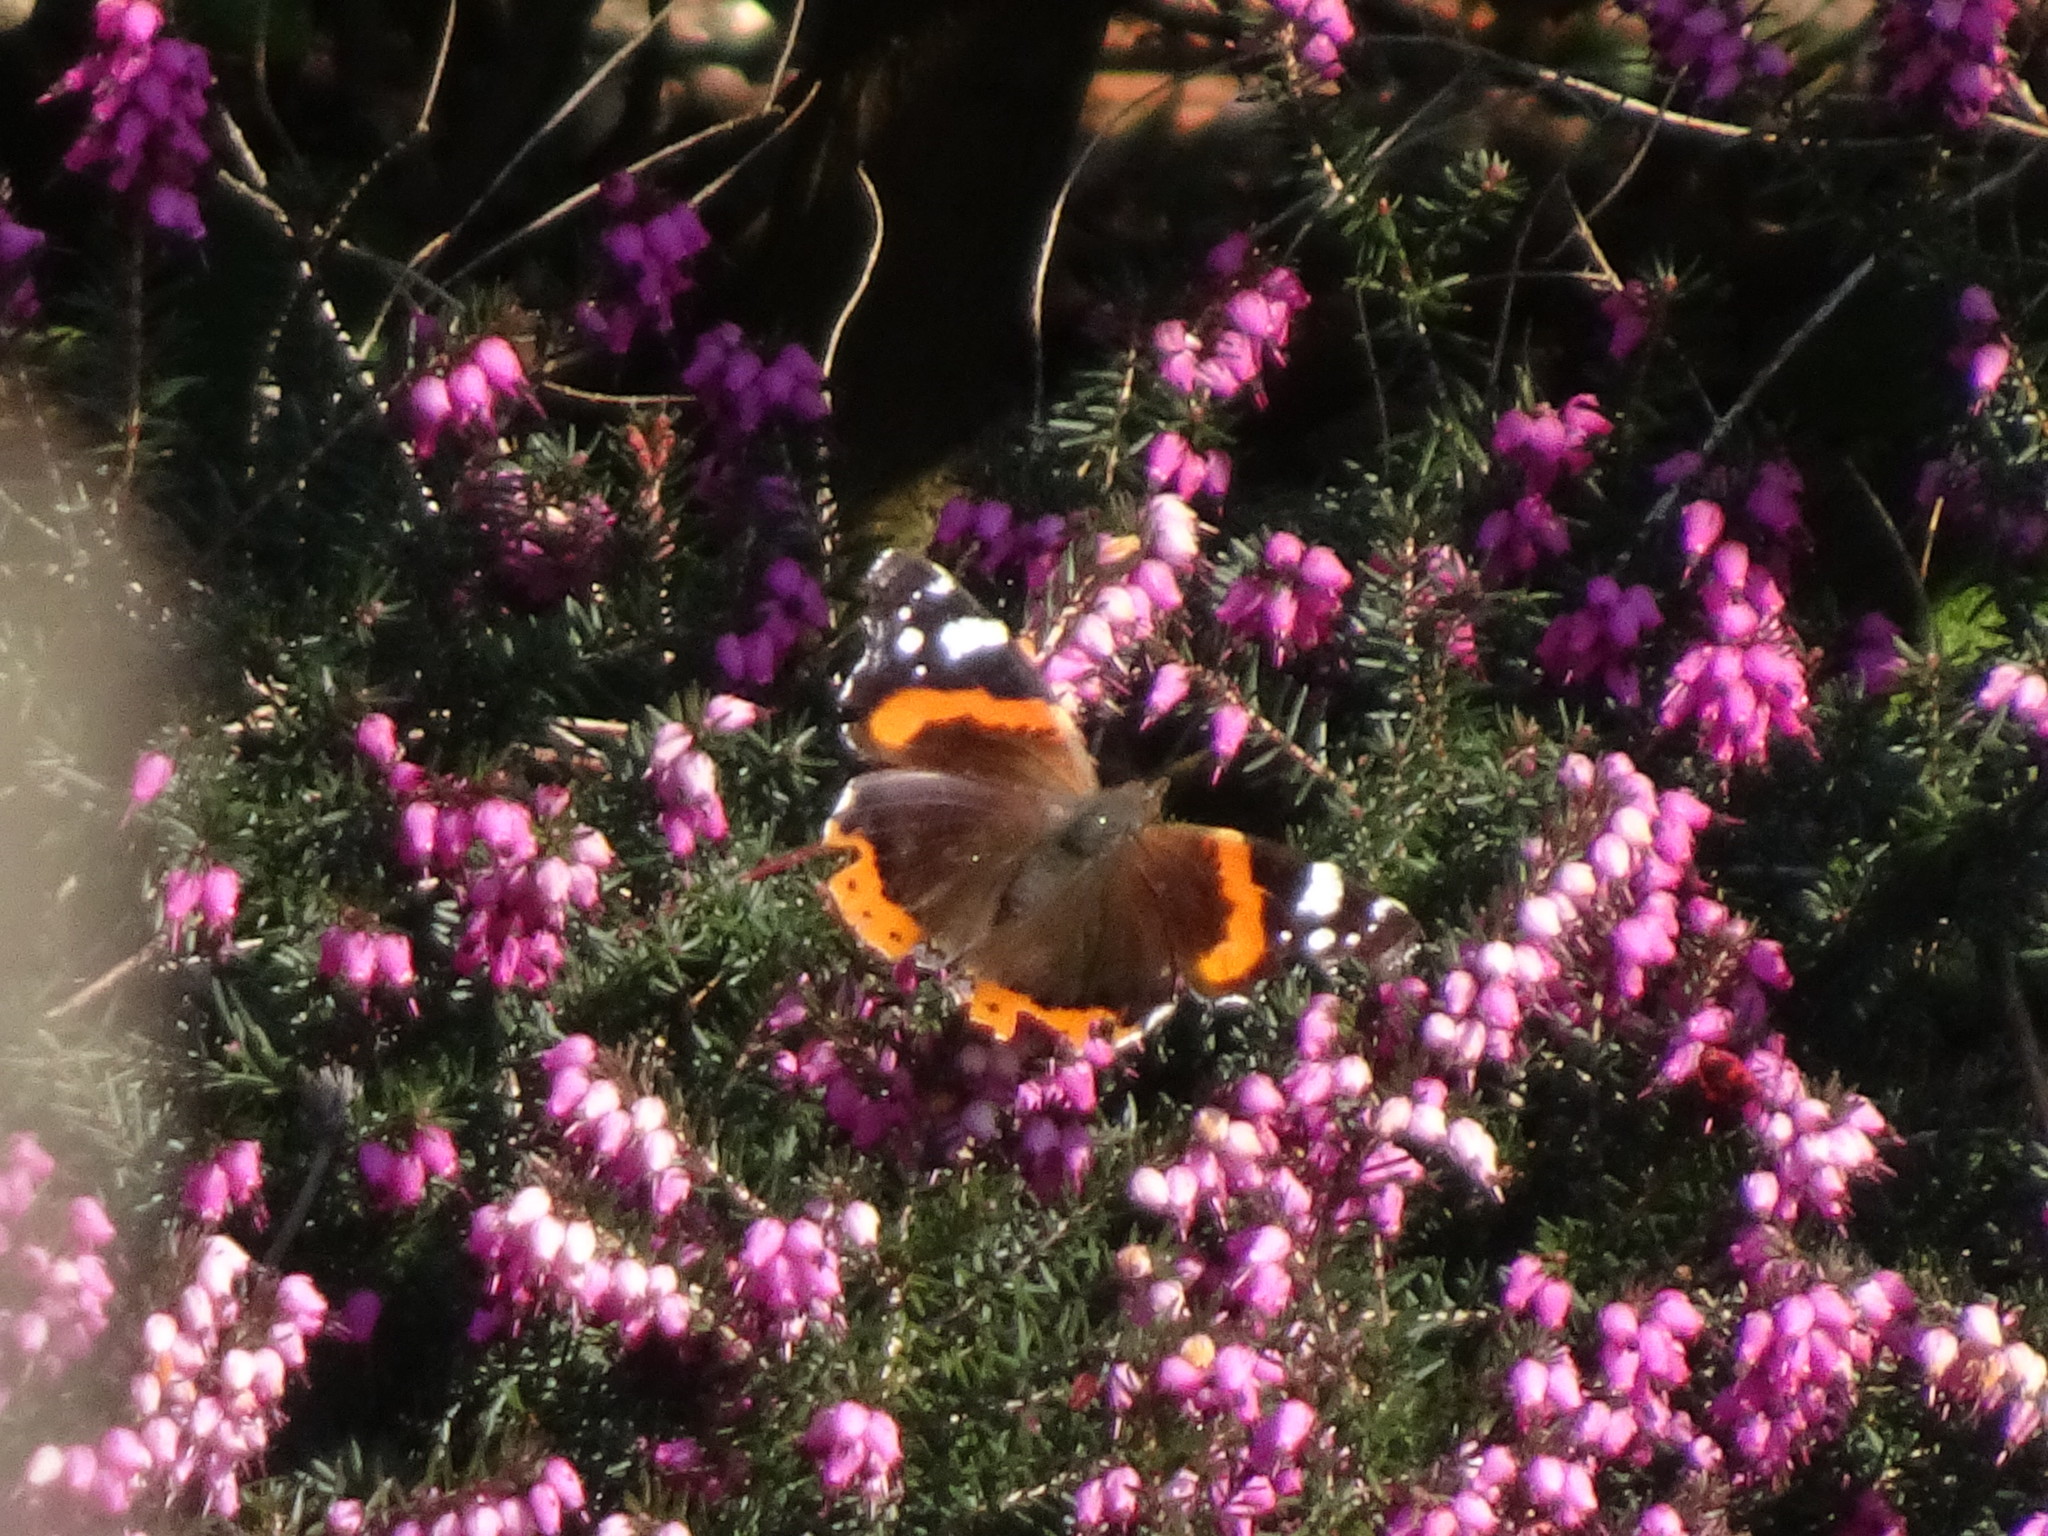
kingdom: Animalia
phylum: Arthropoda
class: Insecta
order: Lepidoptera
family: Nymphalidae
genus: Vanessa
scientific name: Vanessa atalanta
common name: Red admiral
